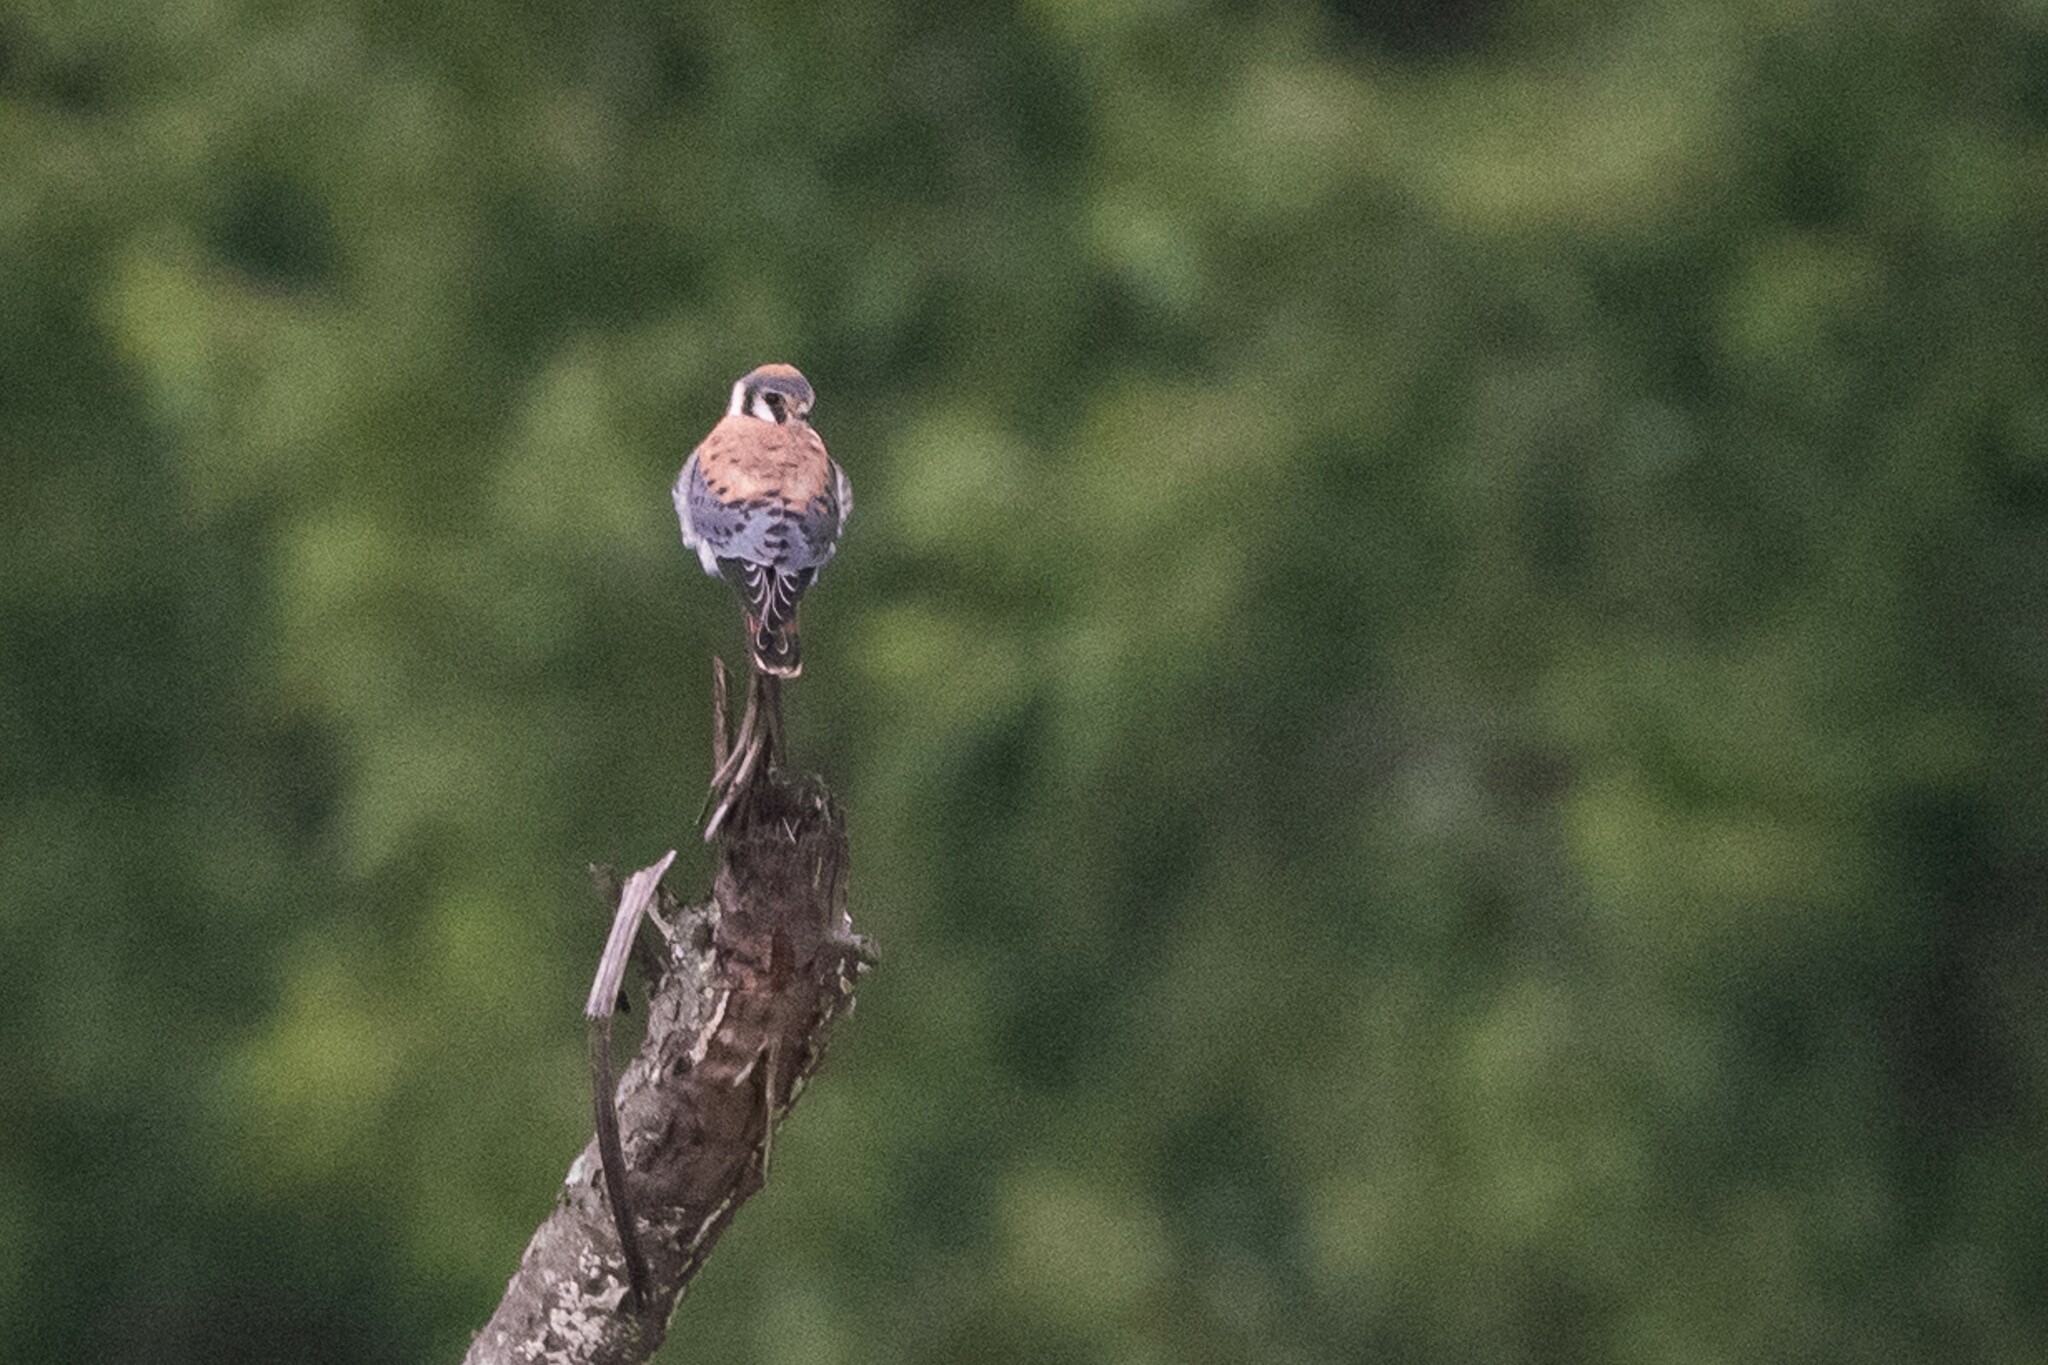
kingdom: Animalia
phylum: Chordata
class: Aves
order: Falconiformes
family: Falconidae
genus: Falco
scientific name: Falco sparverius
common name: American kestrel
